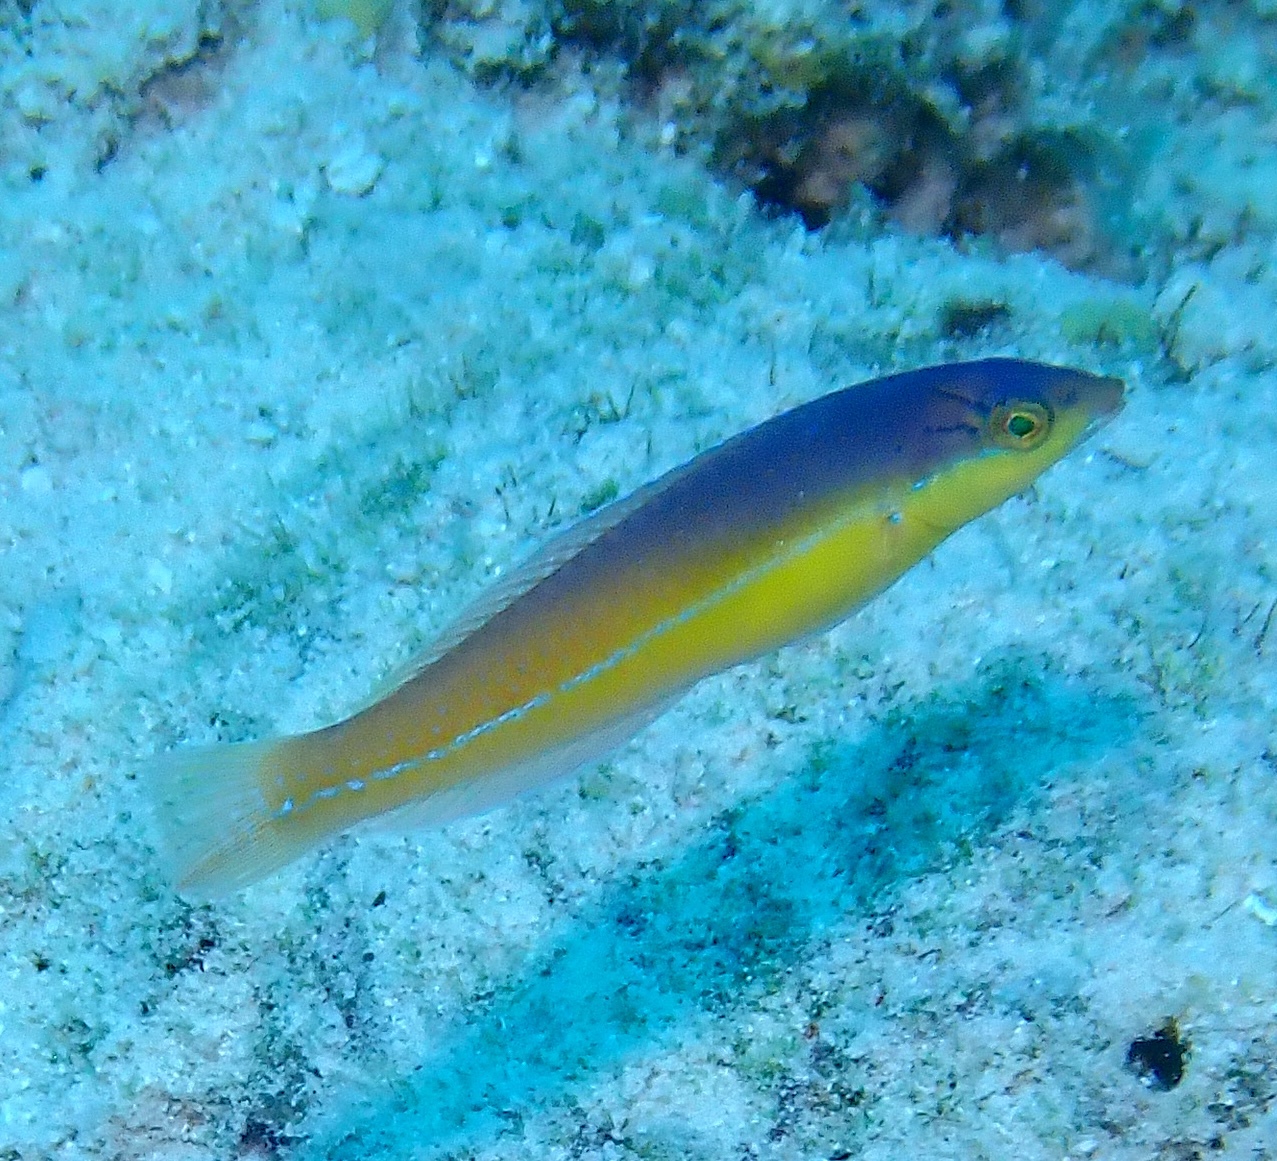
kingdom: Animalia
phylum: Chordata
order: Perciformes
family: Labridae
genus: Halichoeres
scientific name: Halichoeres garnoti
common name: Yellowhead wrasse
